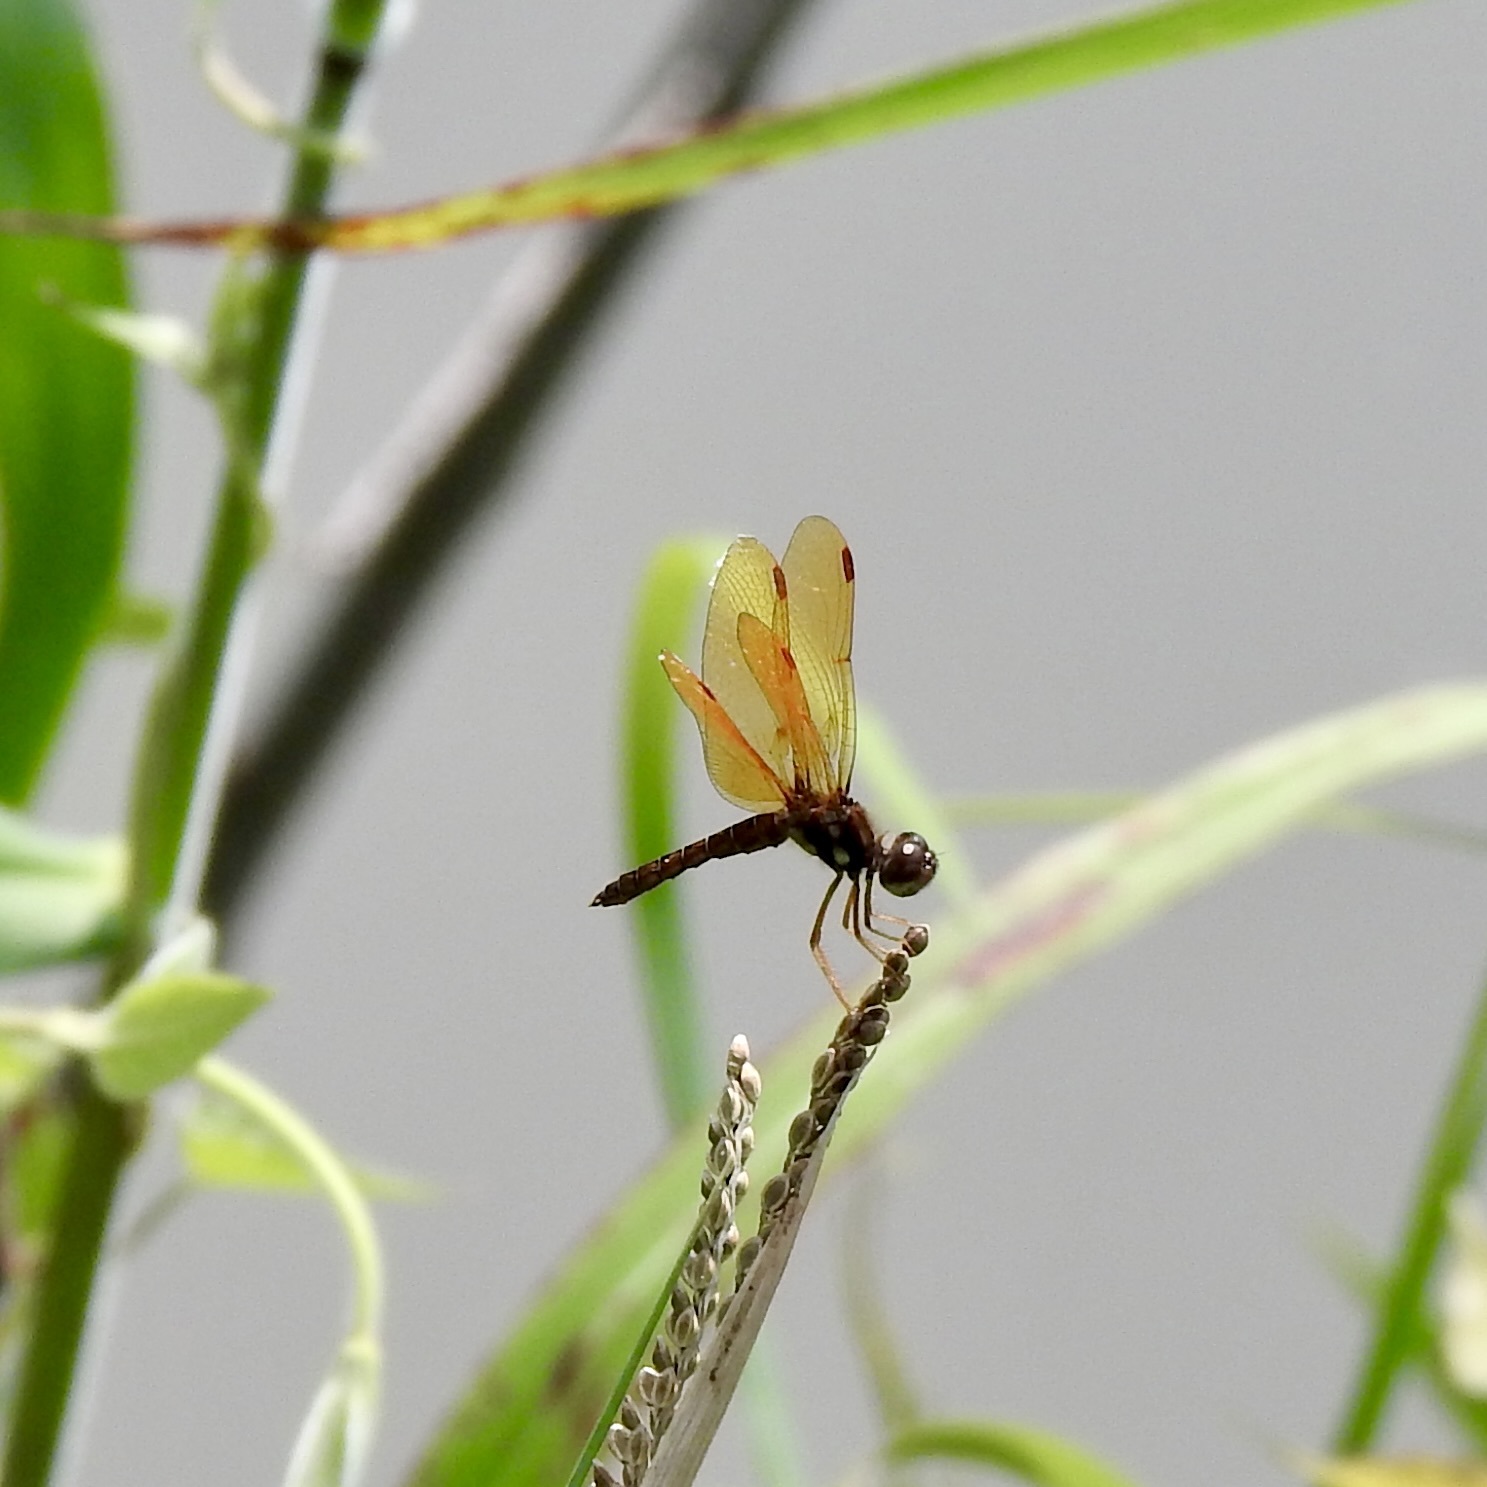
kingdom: Animalia
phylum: Arthropoda
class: Insecta
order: Odonata
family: Libellulidae
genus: Perithemis
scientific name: Perithemis tenera
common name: Eastern amberwing
